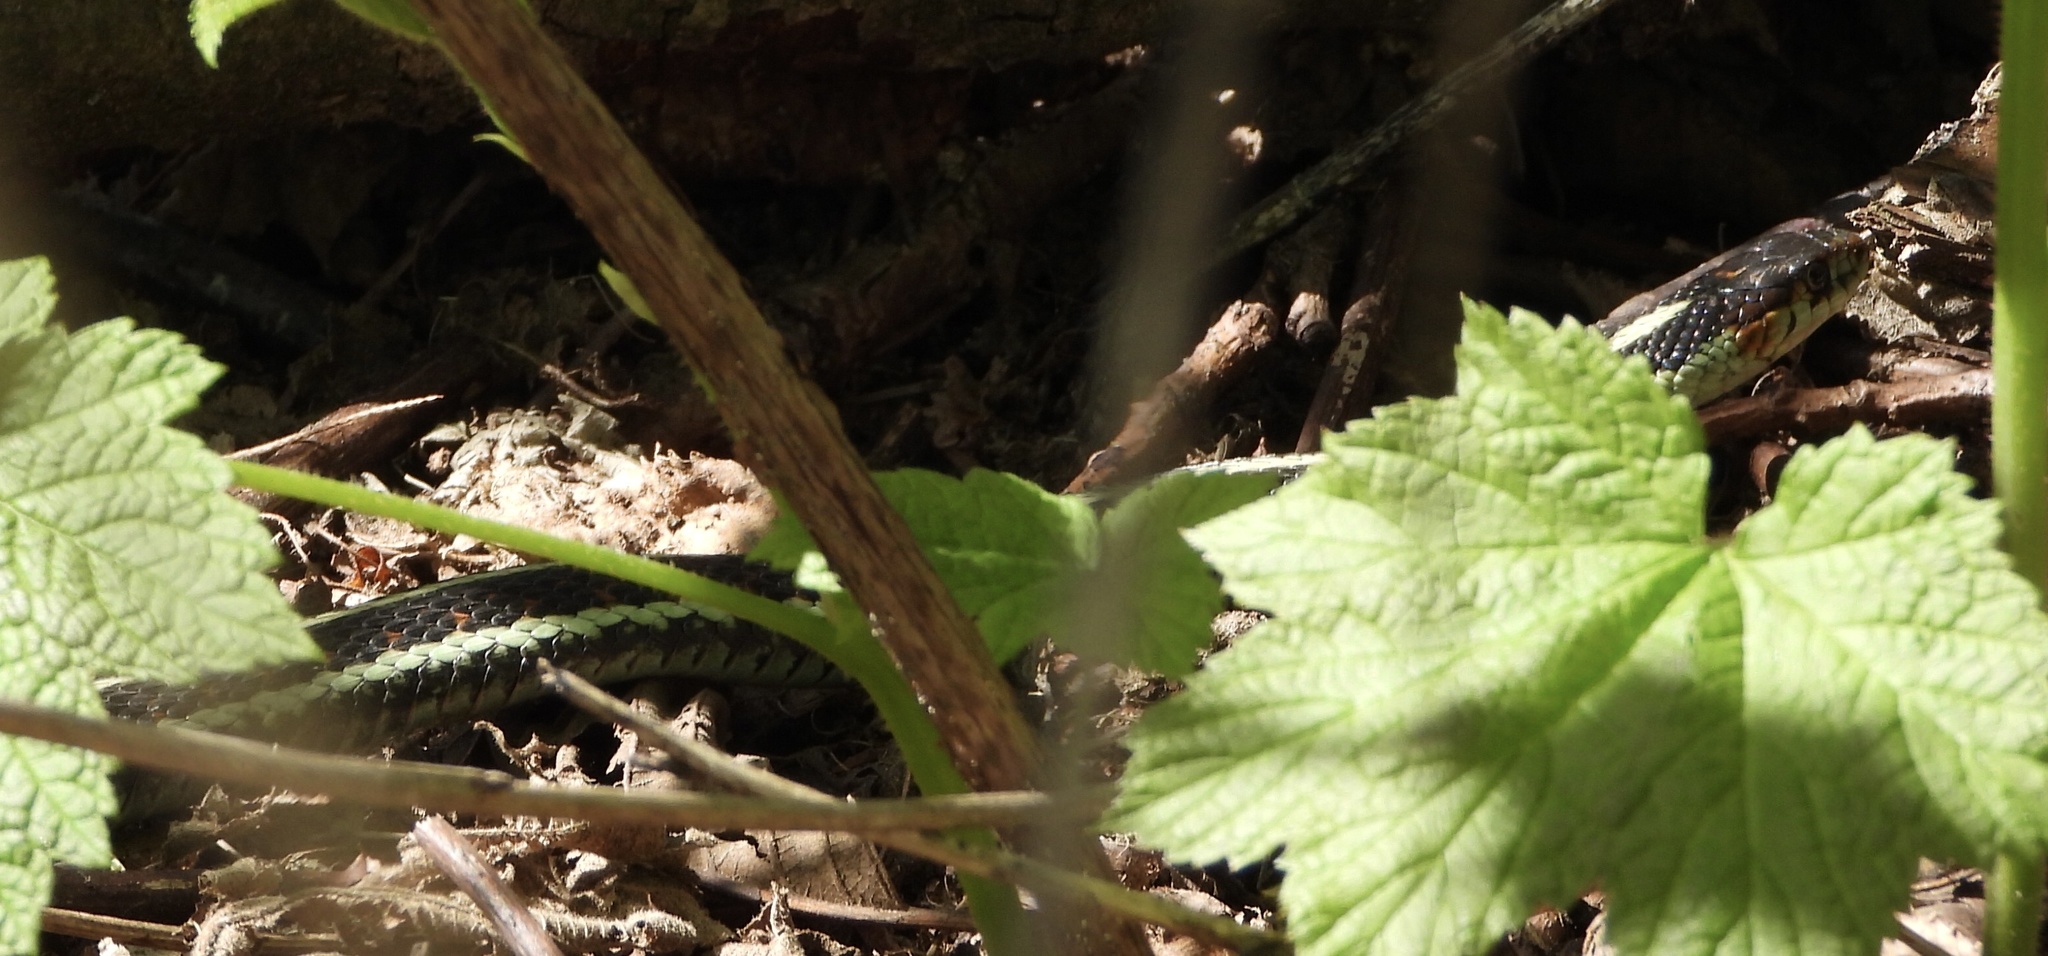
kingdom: Animalia
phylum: Chordata
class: Squamata
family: Colubridae
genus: Thamnophis
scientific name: Thamnophis sirtalis
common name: Common garter snake
